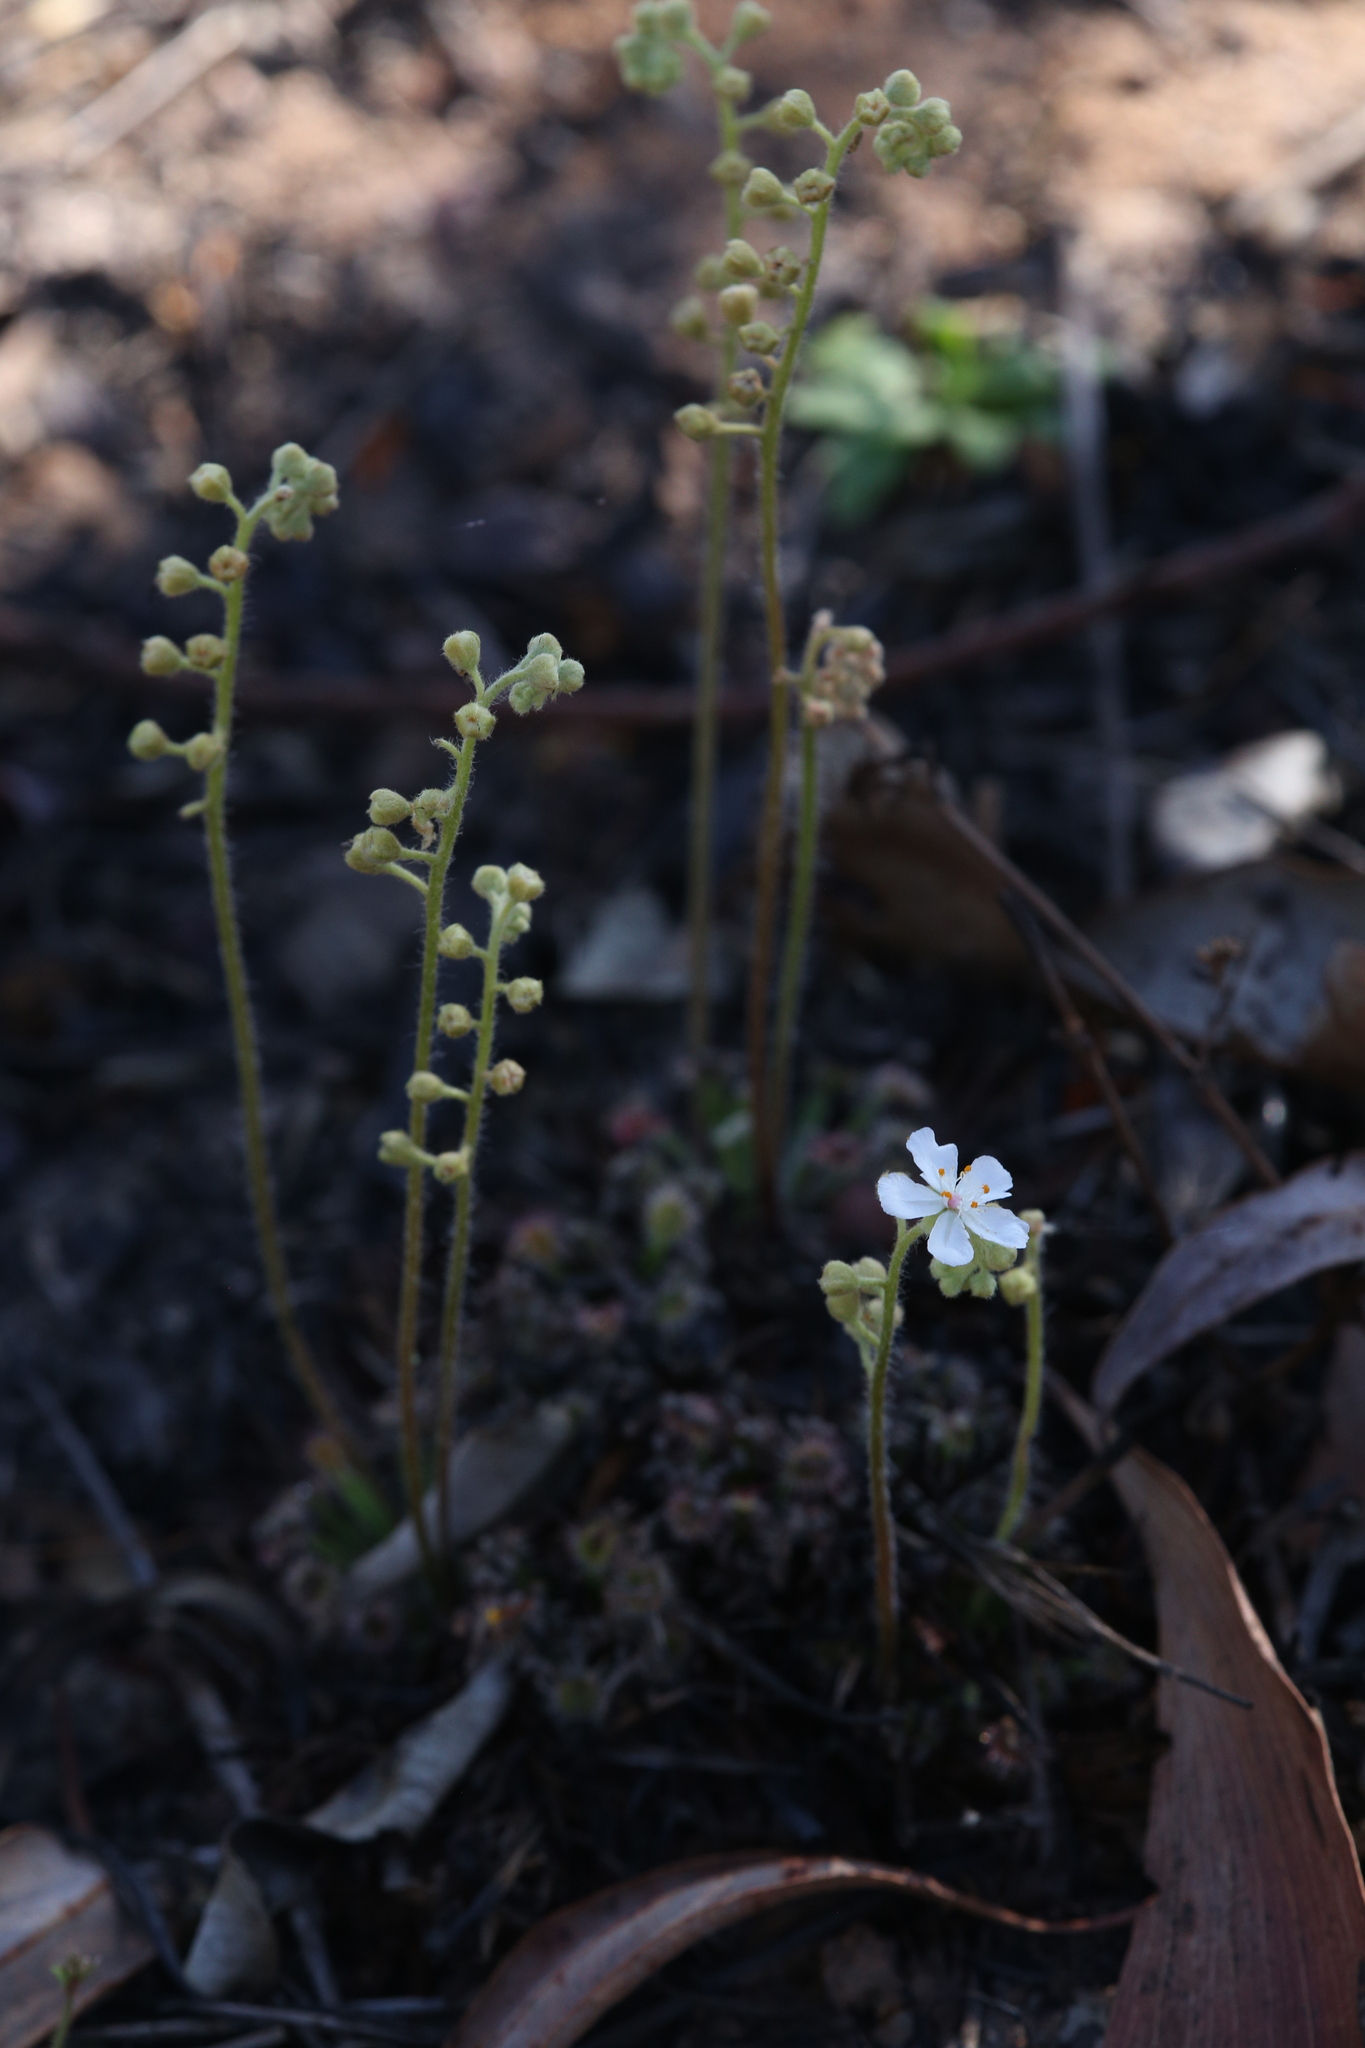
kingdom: Plantae
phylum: Tracheophyta
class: Magnoliopsida
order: Caryophyllales
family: Droseraceae
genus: Drosera
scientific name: Drosera dilatatopetiolaris
